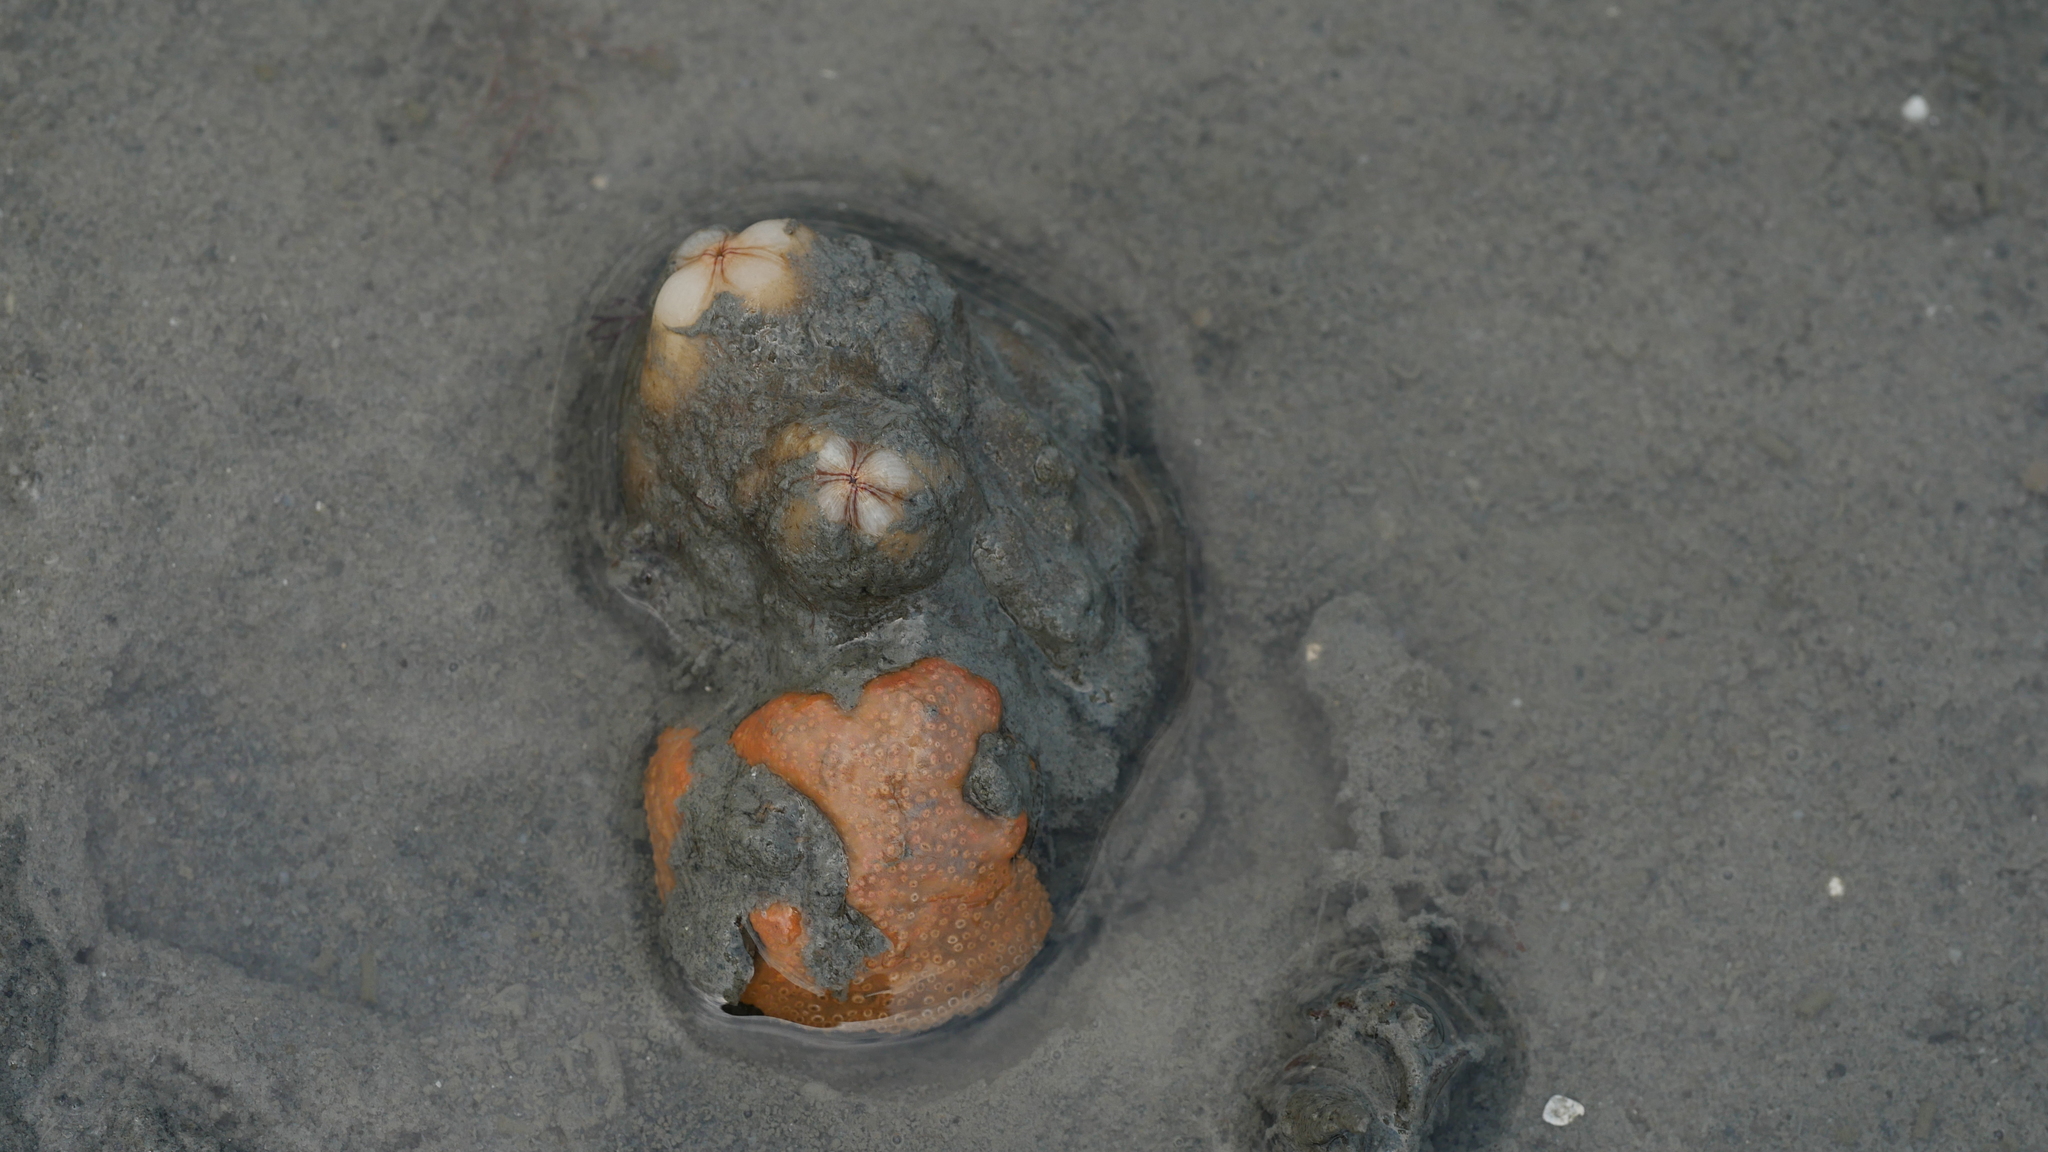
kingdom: Animalia
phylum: Chordata
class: Ascidiacea
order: Aplousobranchia
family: Polyclinidae
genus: Aplidium
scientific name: Aplidium stellatum
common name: Atlantic sea pork
